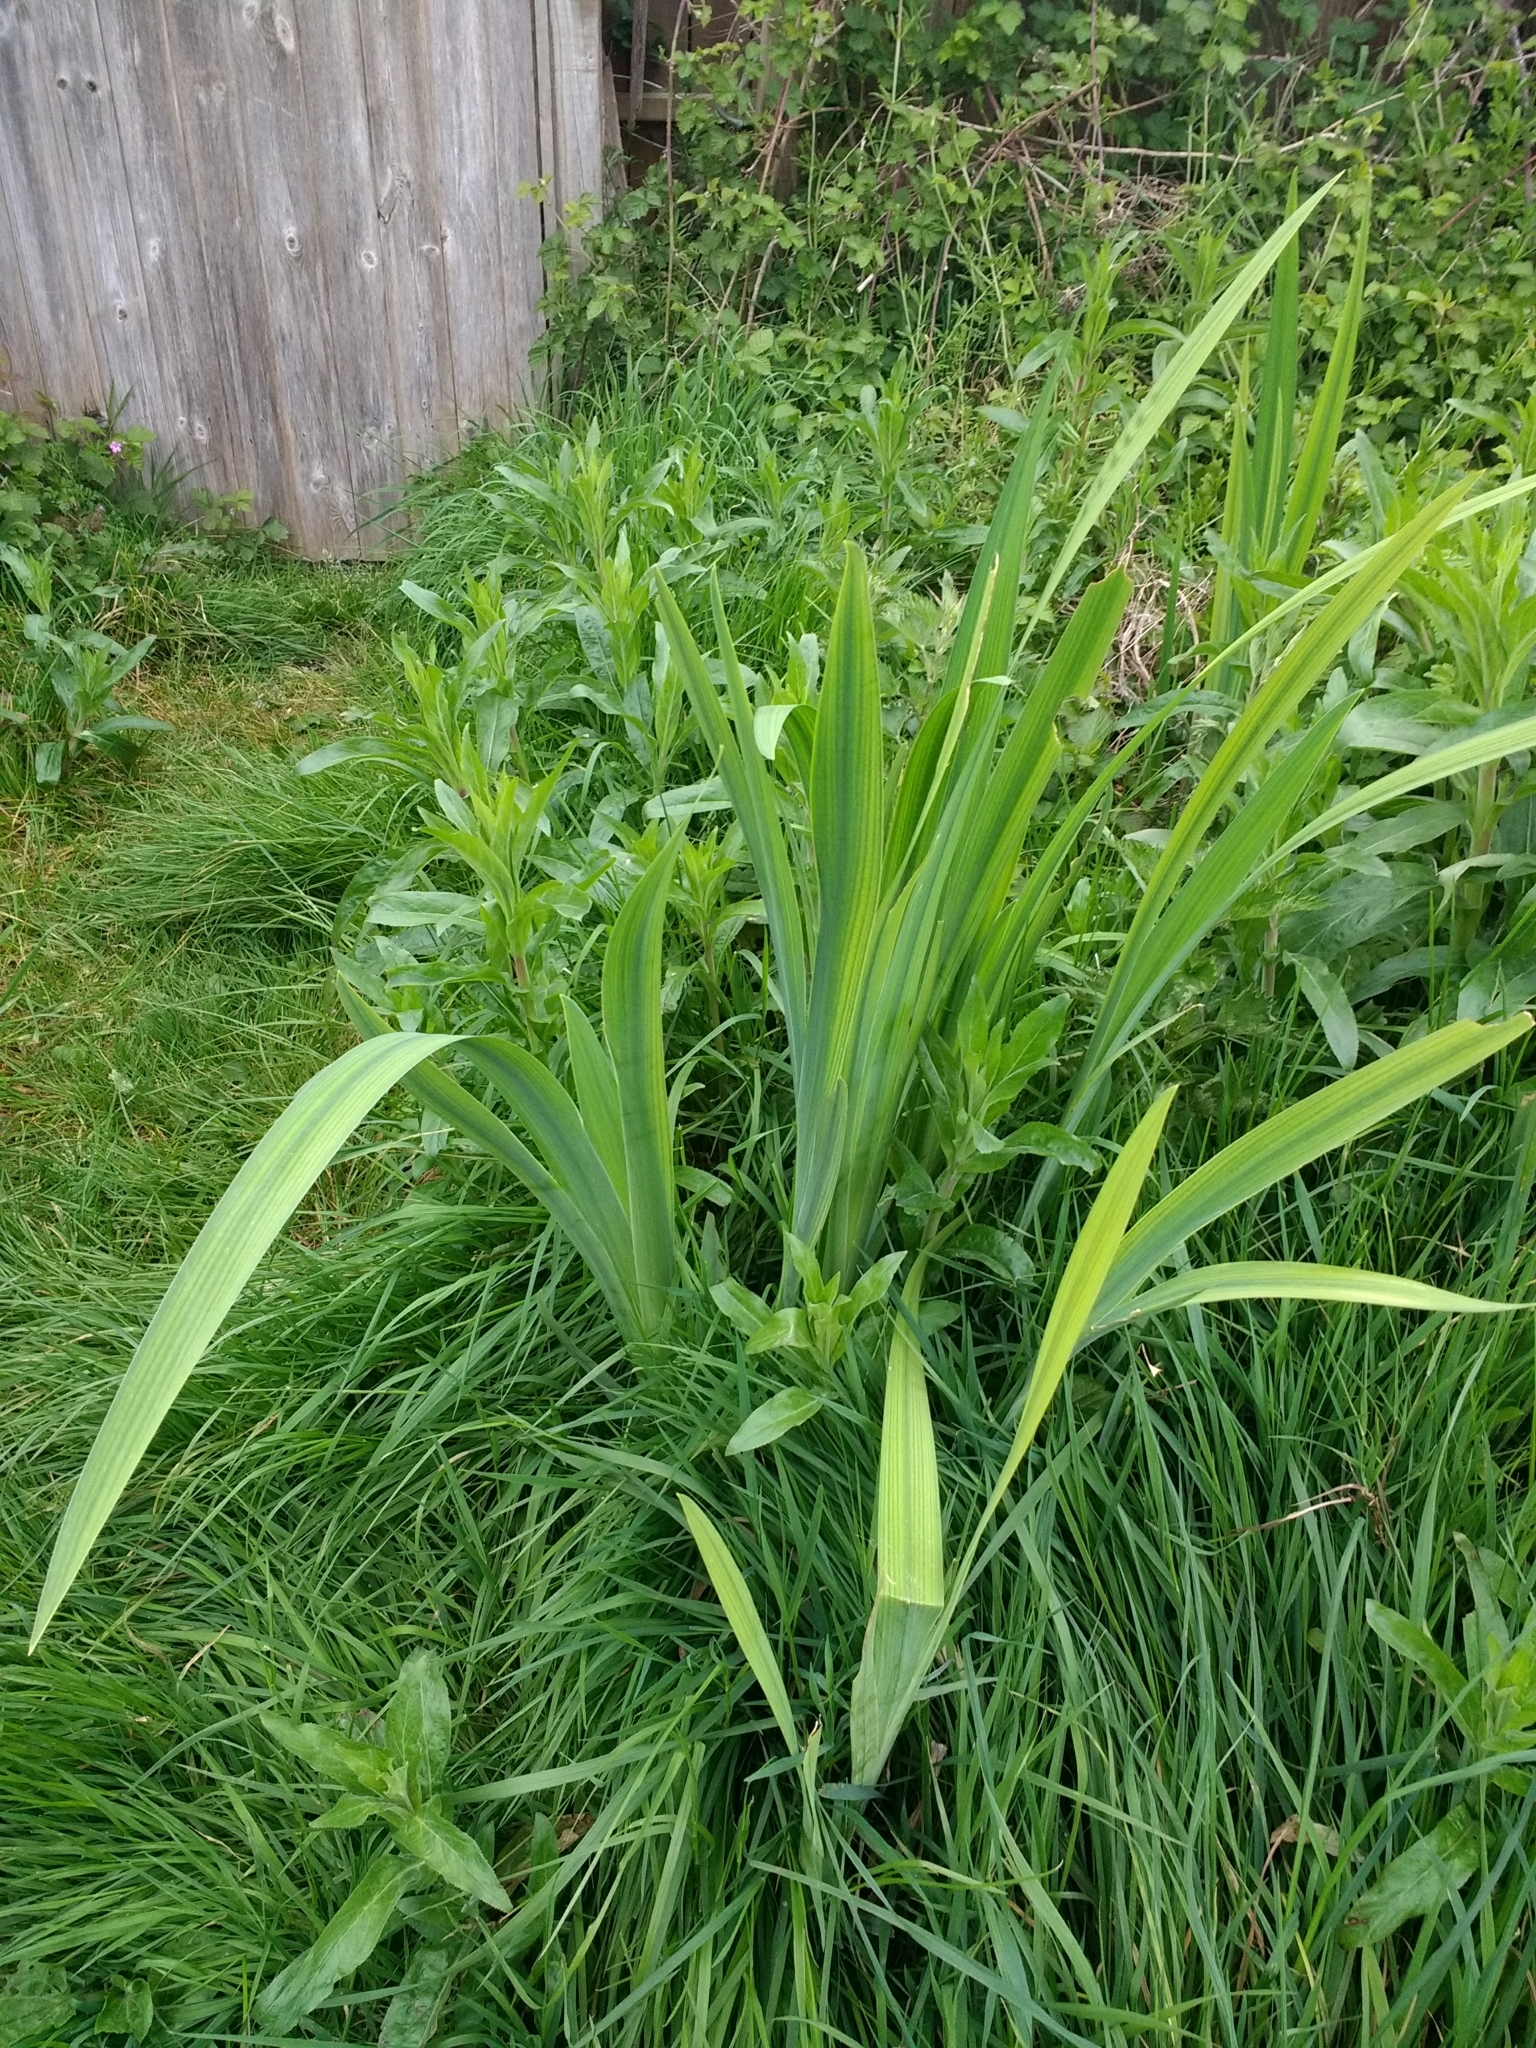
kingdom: Plantae
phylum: Tracheophyta
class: Liliopsida
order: Asparagales
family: Iridaceae
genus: Iris
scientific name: Iris pseudacorus
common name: Yellow flag
